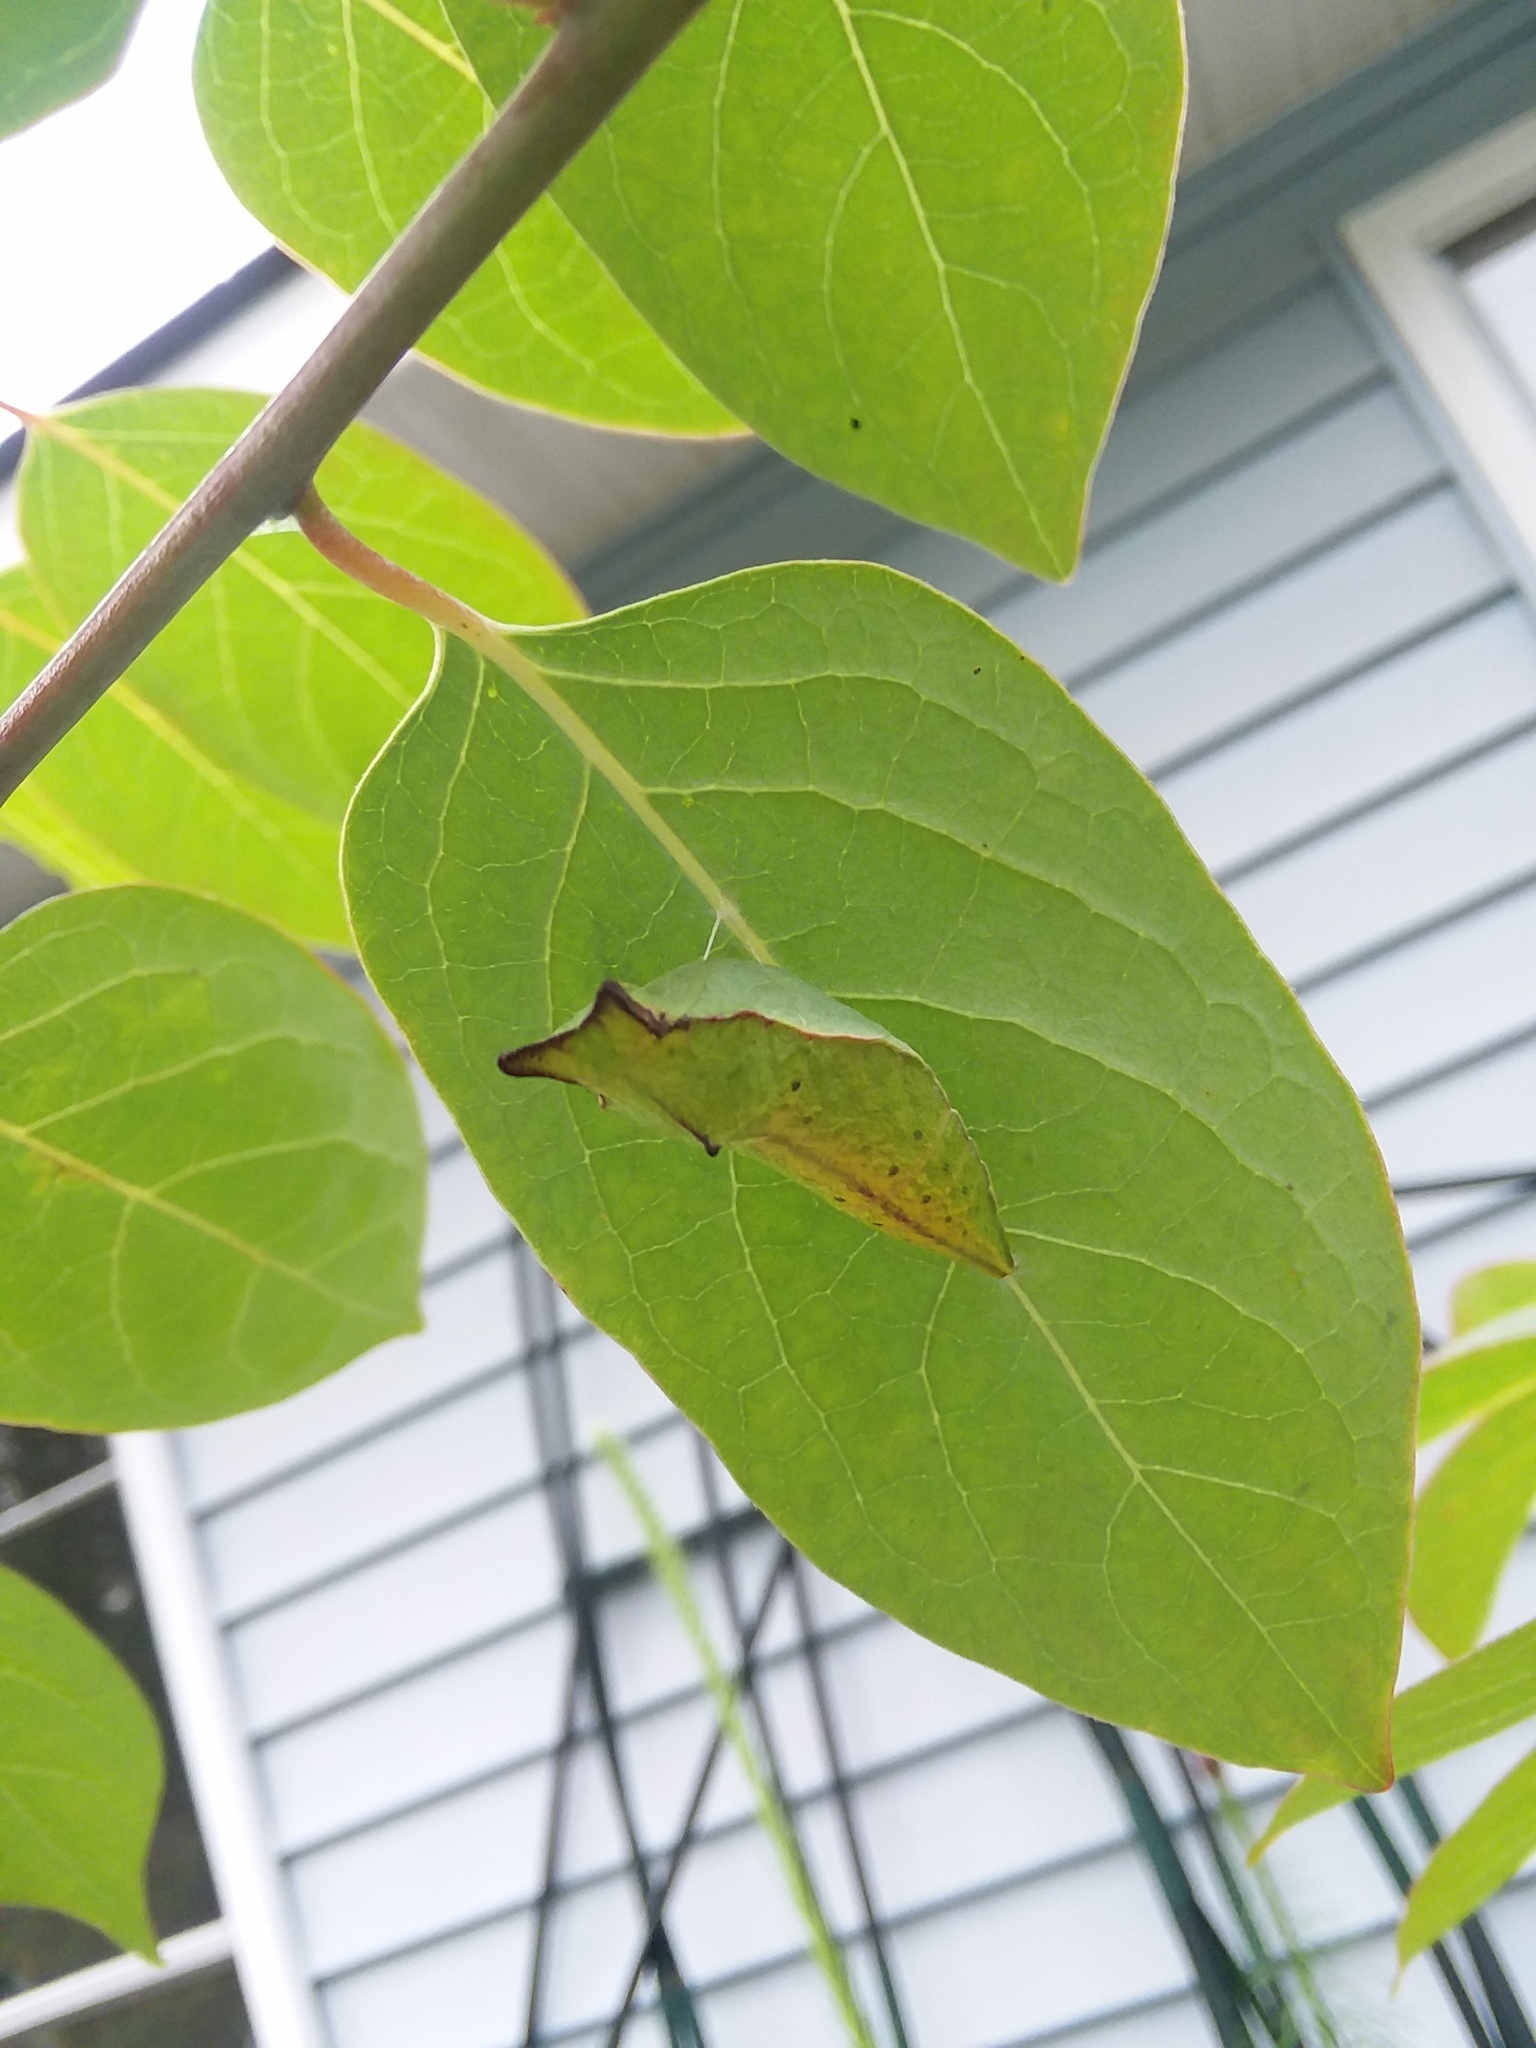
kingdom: Animalia
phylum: Arthropoda
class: Insecta
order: Lepidoptera
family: Papilionidae
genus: Papilio
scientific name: Papilio troilus
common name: Spicebush swallowtail
